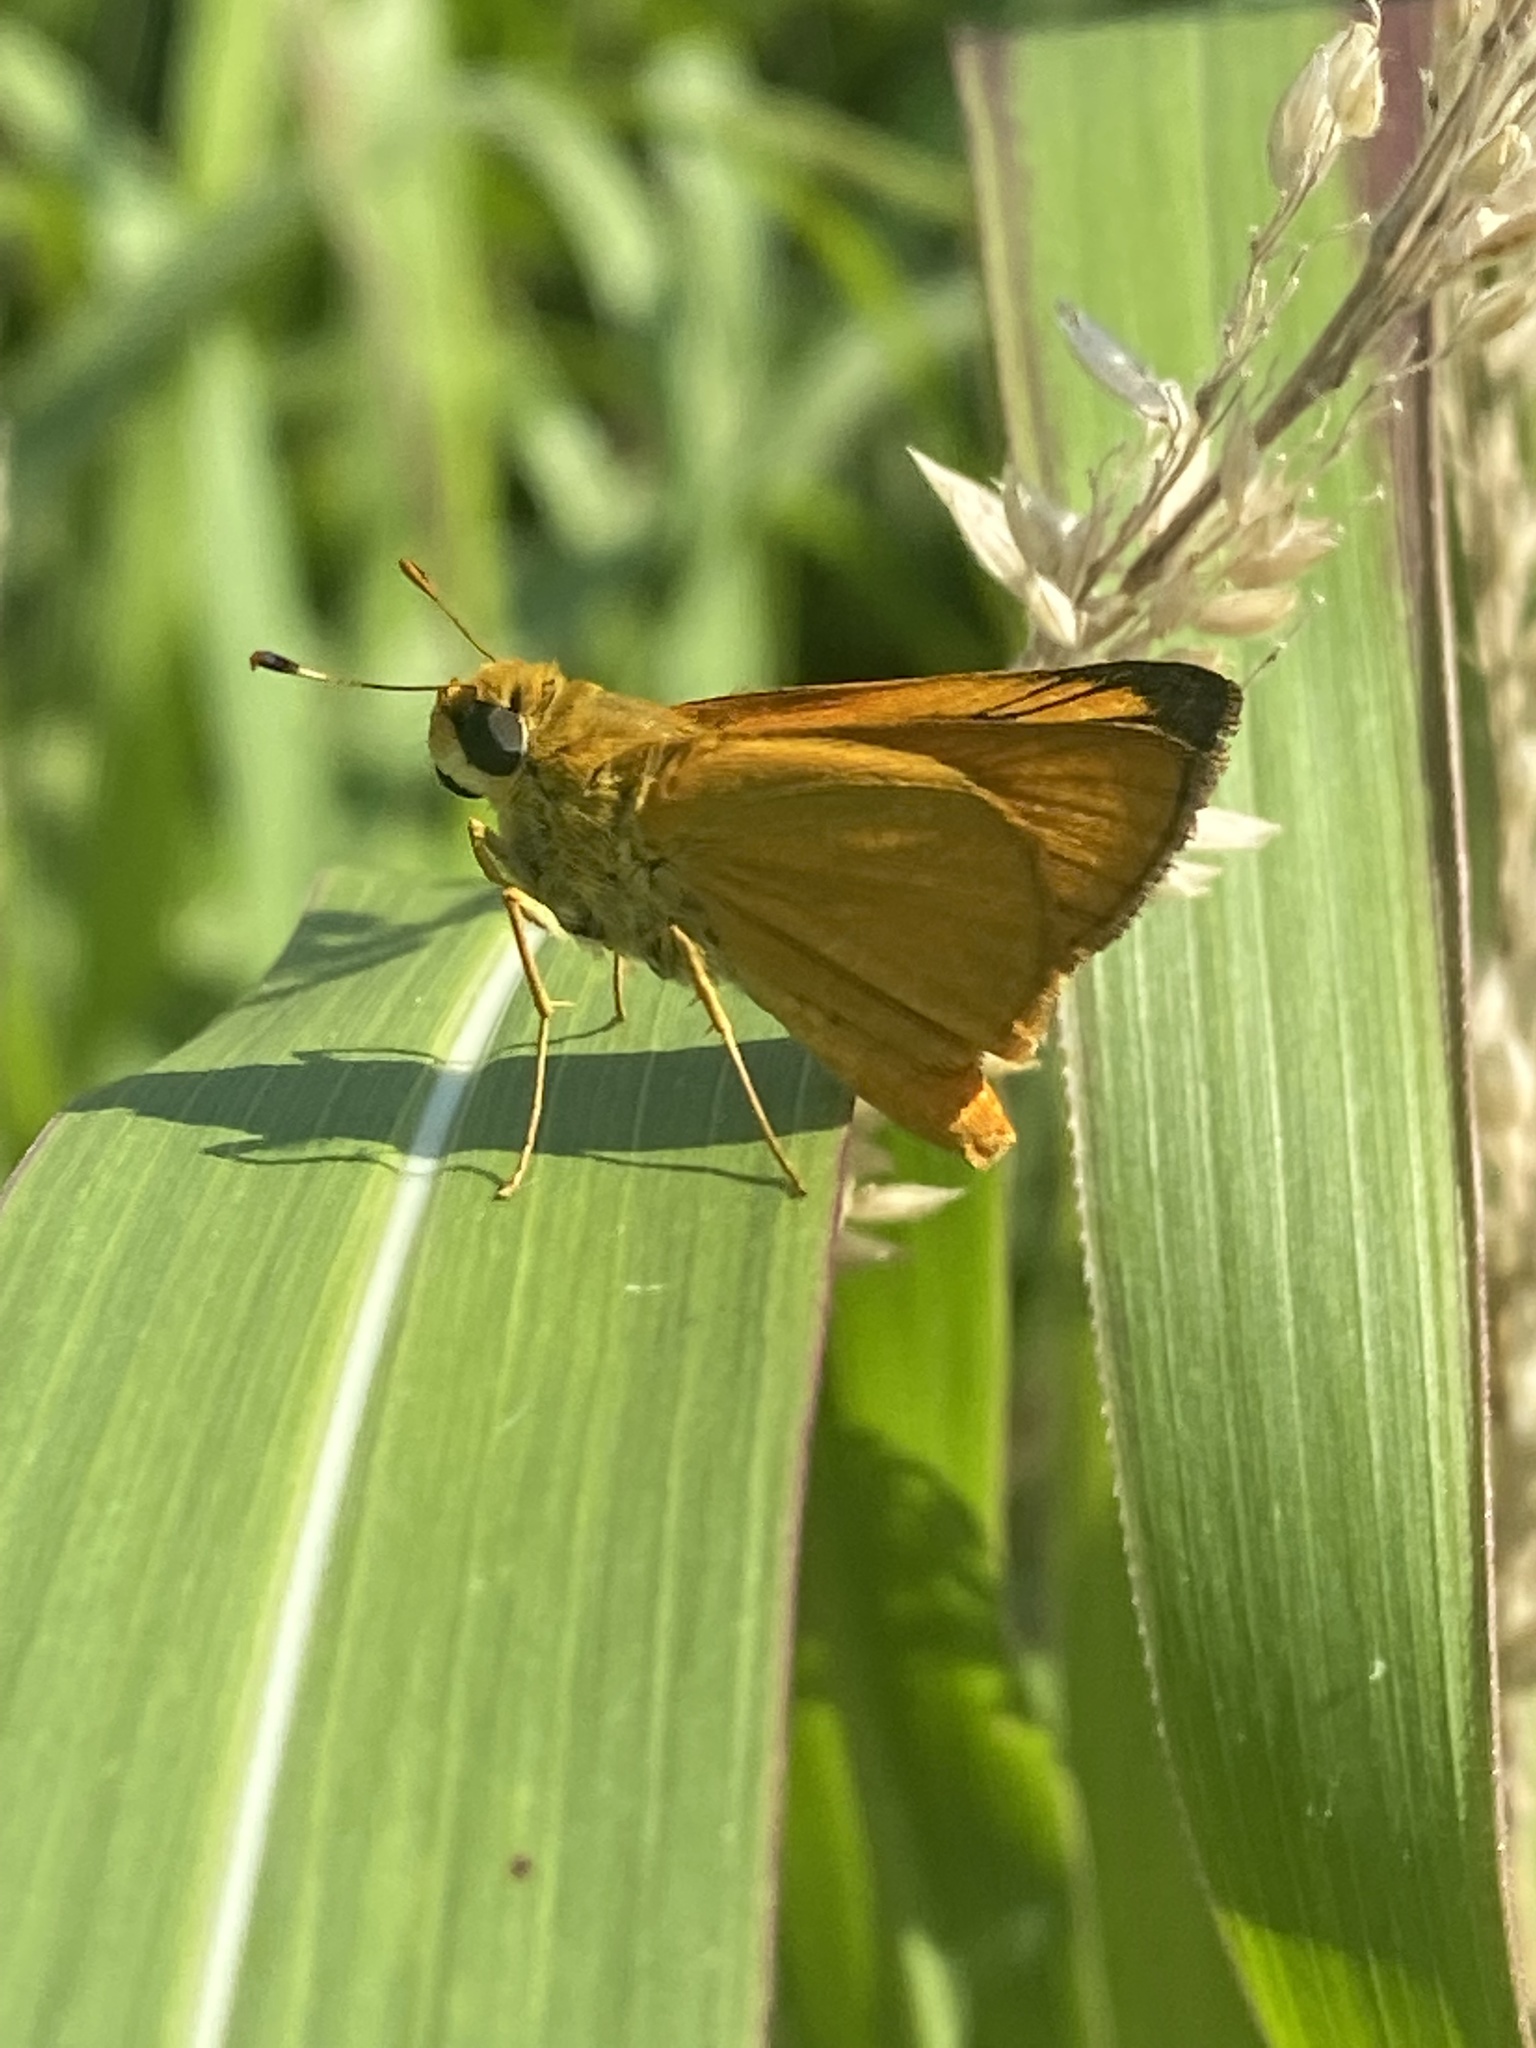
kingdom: Animalia
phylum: Arthropoda
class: Insecta
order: Lepidoptera
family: Hesperiidae
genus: Atrytone
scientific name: Atrytone delaware
